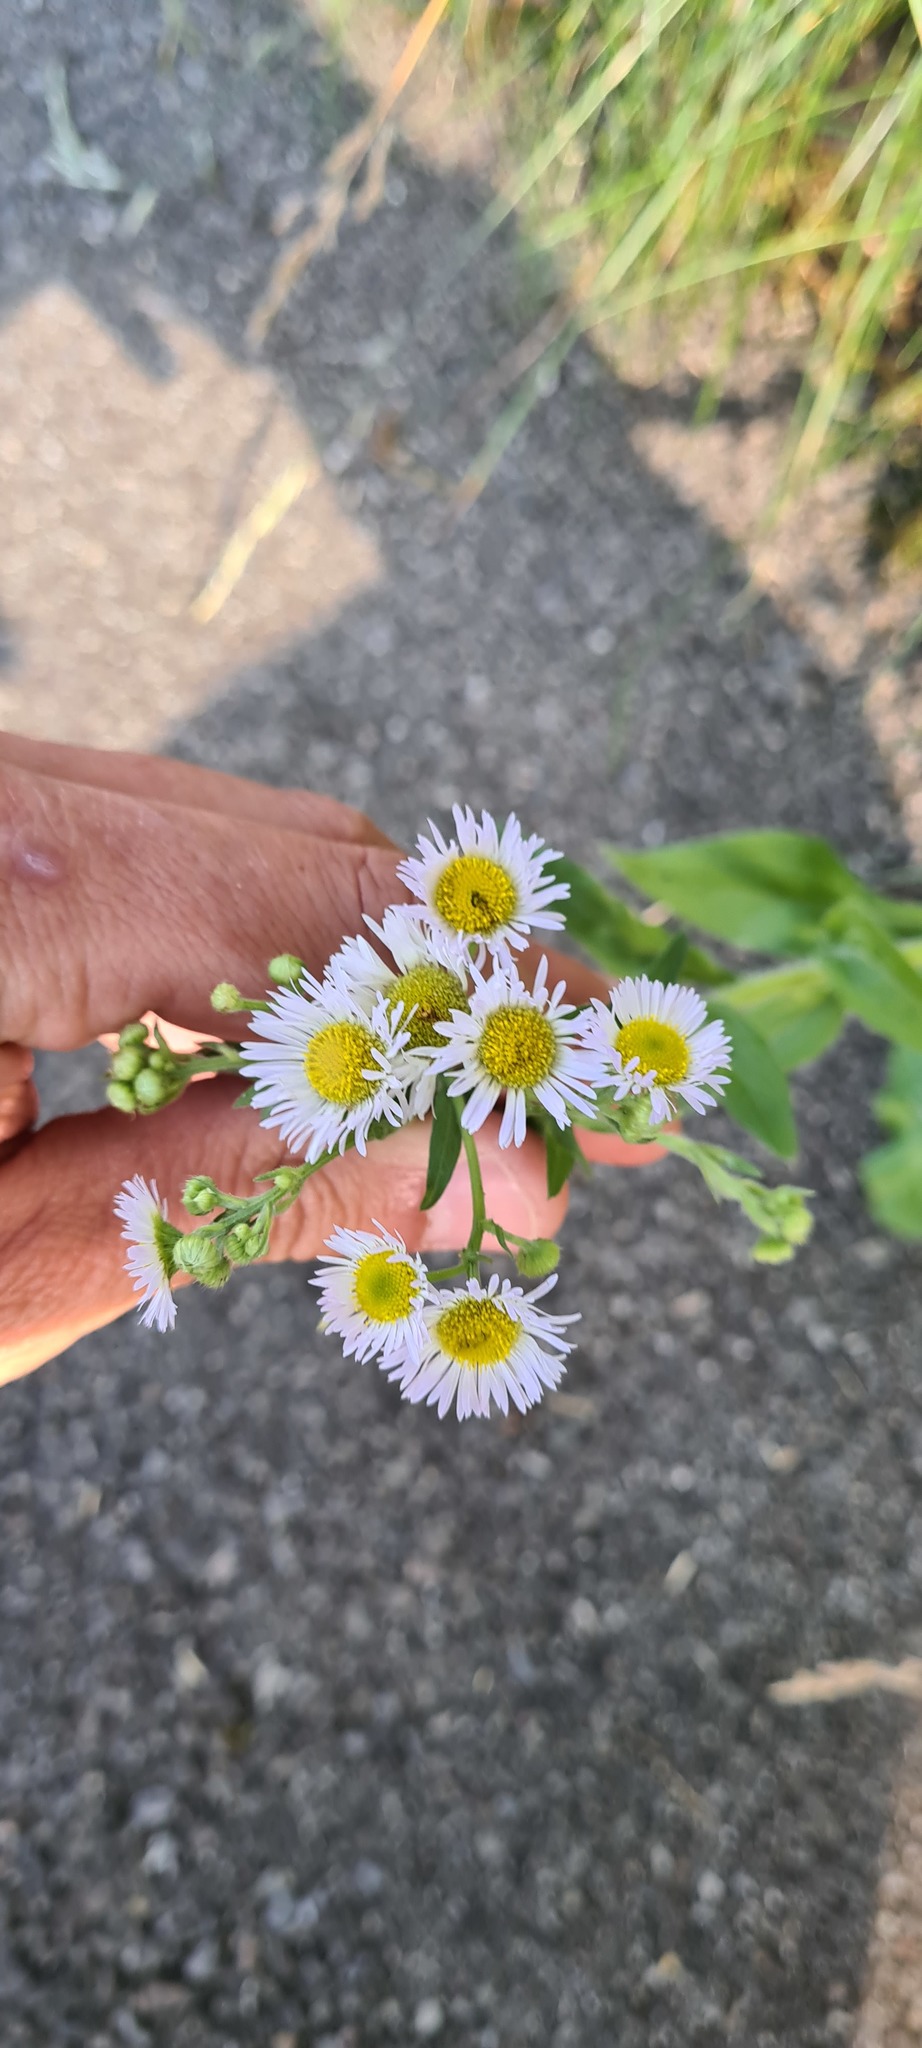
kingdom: Plantae
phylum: Tracheophyta
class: Magnoliopsida
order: Asterales
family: Asteraceae
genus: Erigeron
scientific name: Erigeron annuus
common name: Tall fleabane
